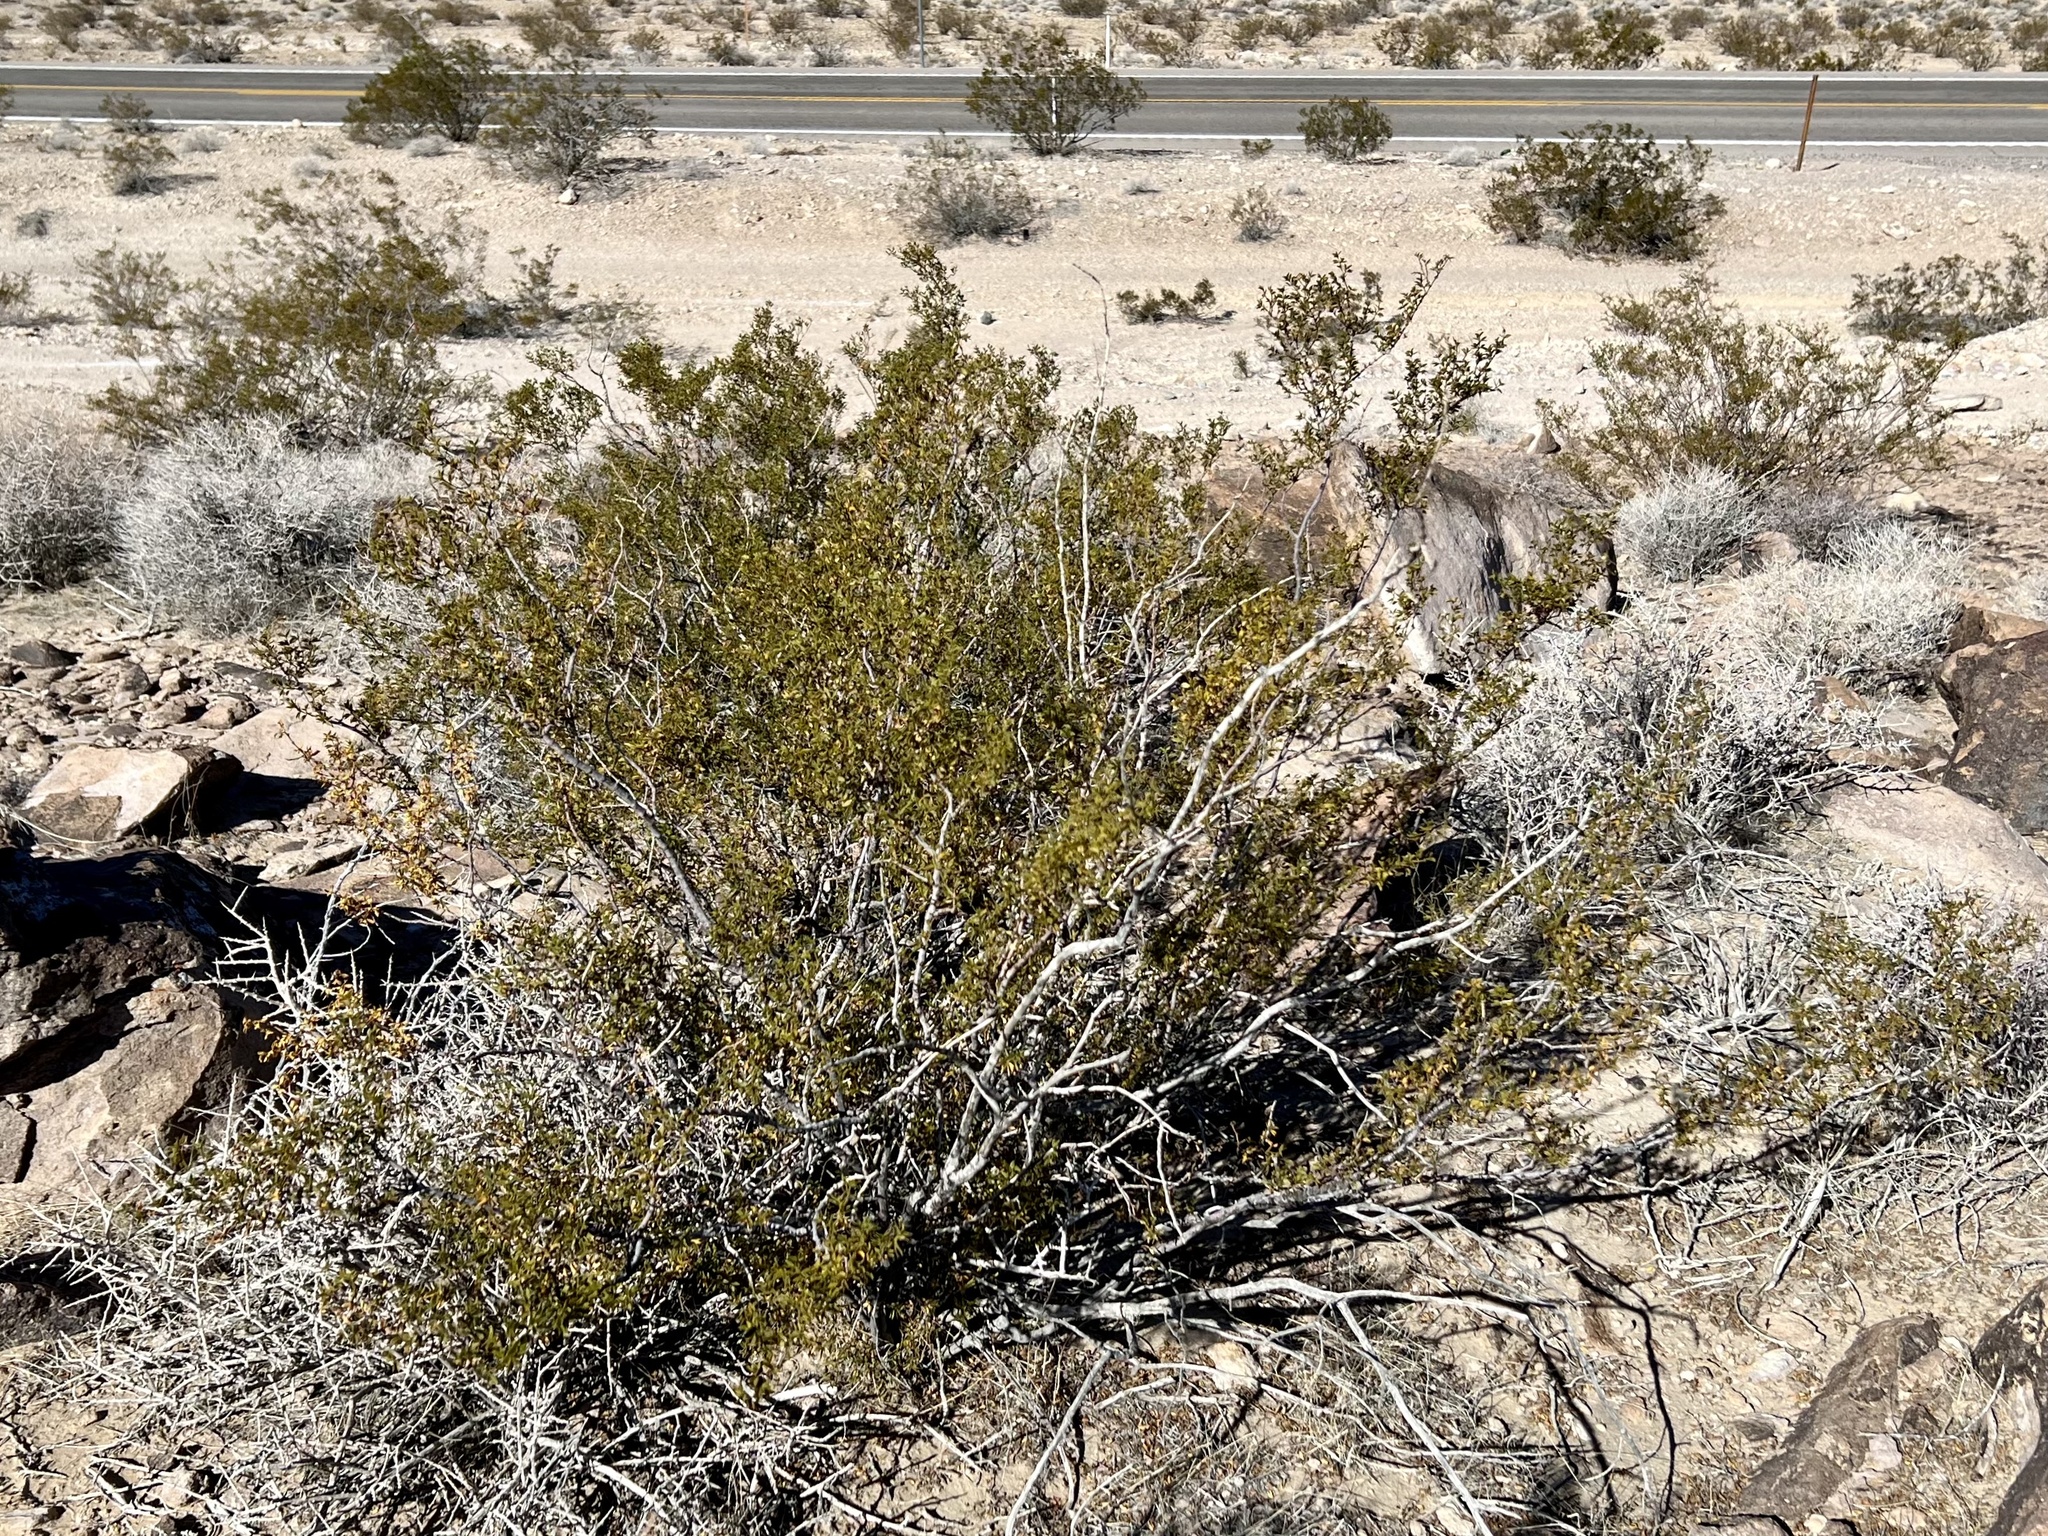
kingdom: Plantae
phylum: Tracheophyta
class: Magnoliopsida
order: Zygophyllales
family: Zygophyllaceae
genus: Larrea
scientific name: Larrea tridentata
